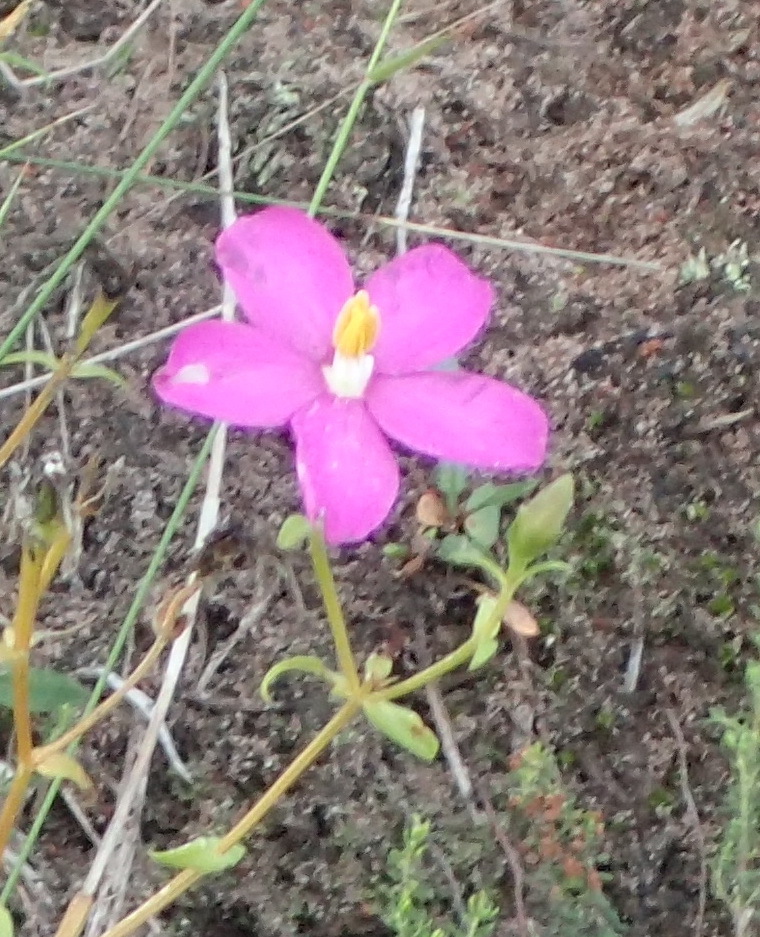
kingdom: Plantae
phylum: Tracheophyta
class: Magnoliopsida
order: Gentianales
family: Gentianaceae
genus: Chironia
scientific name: Chironia tetragona
